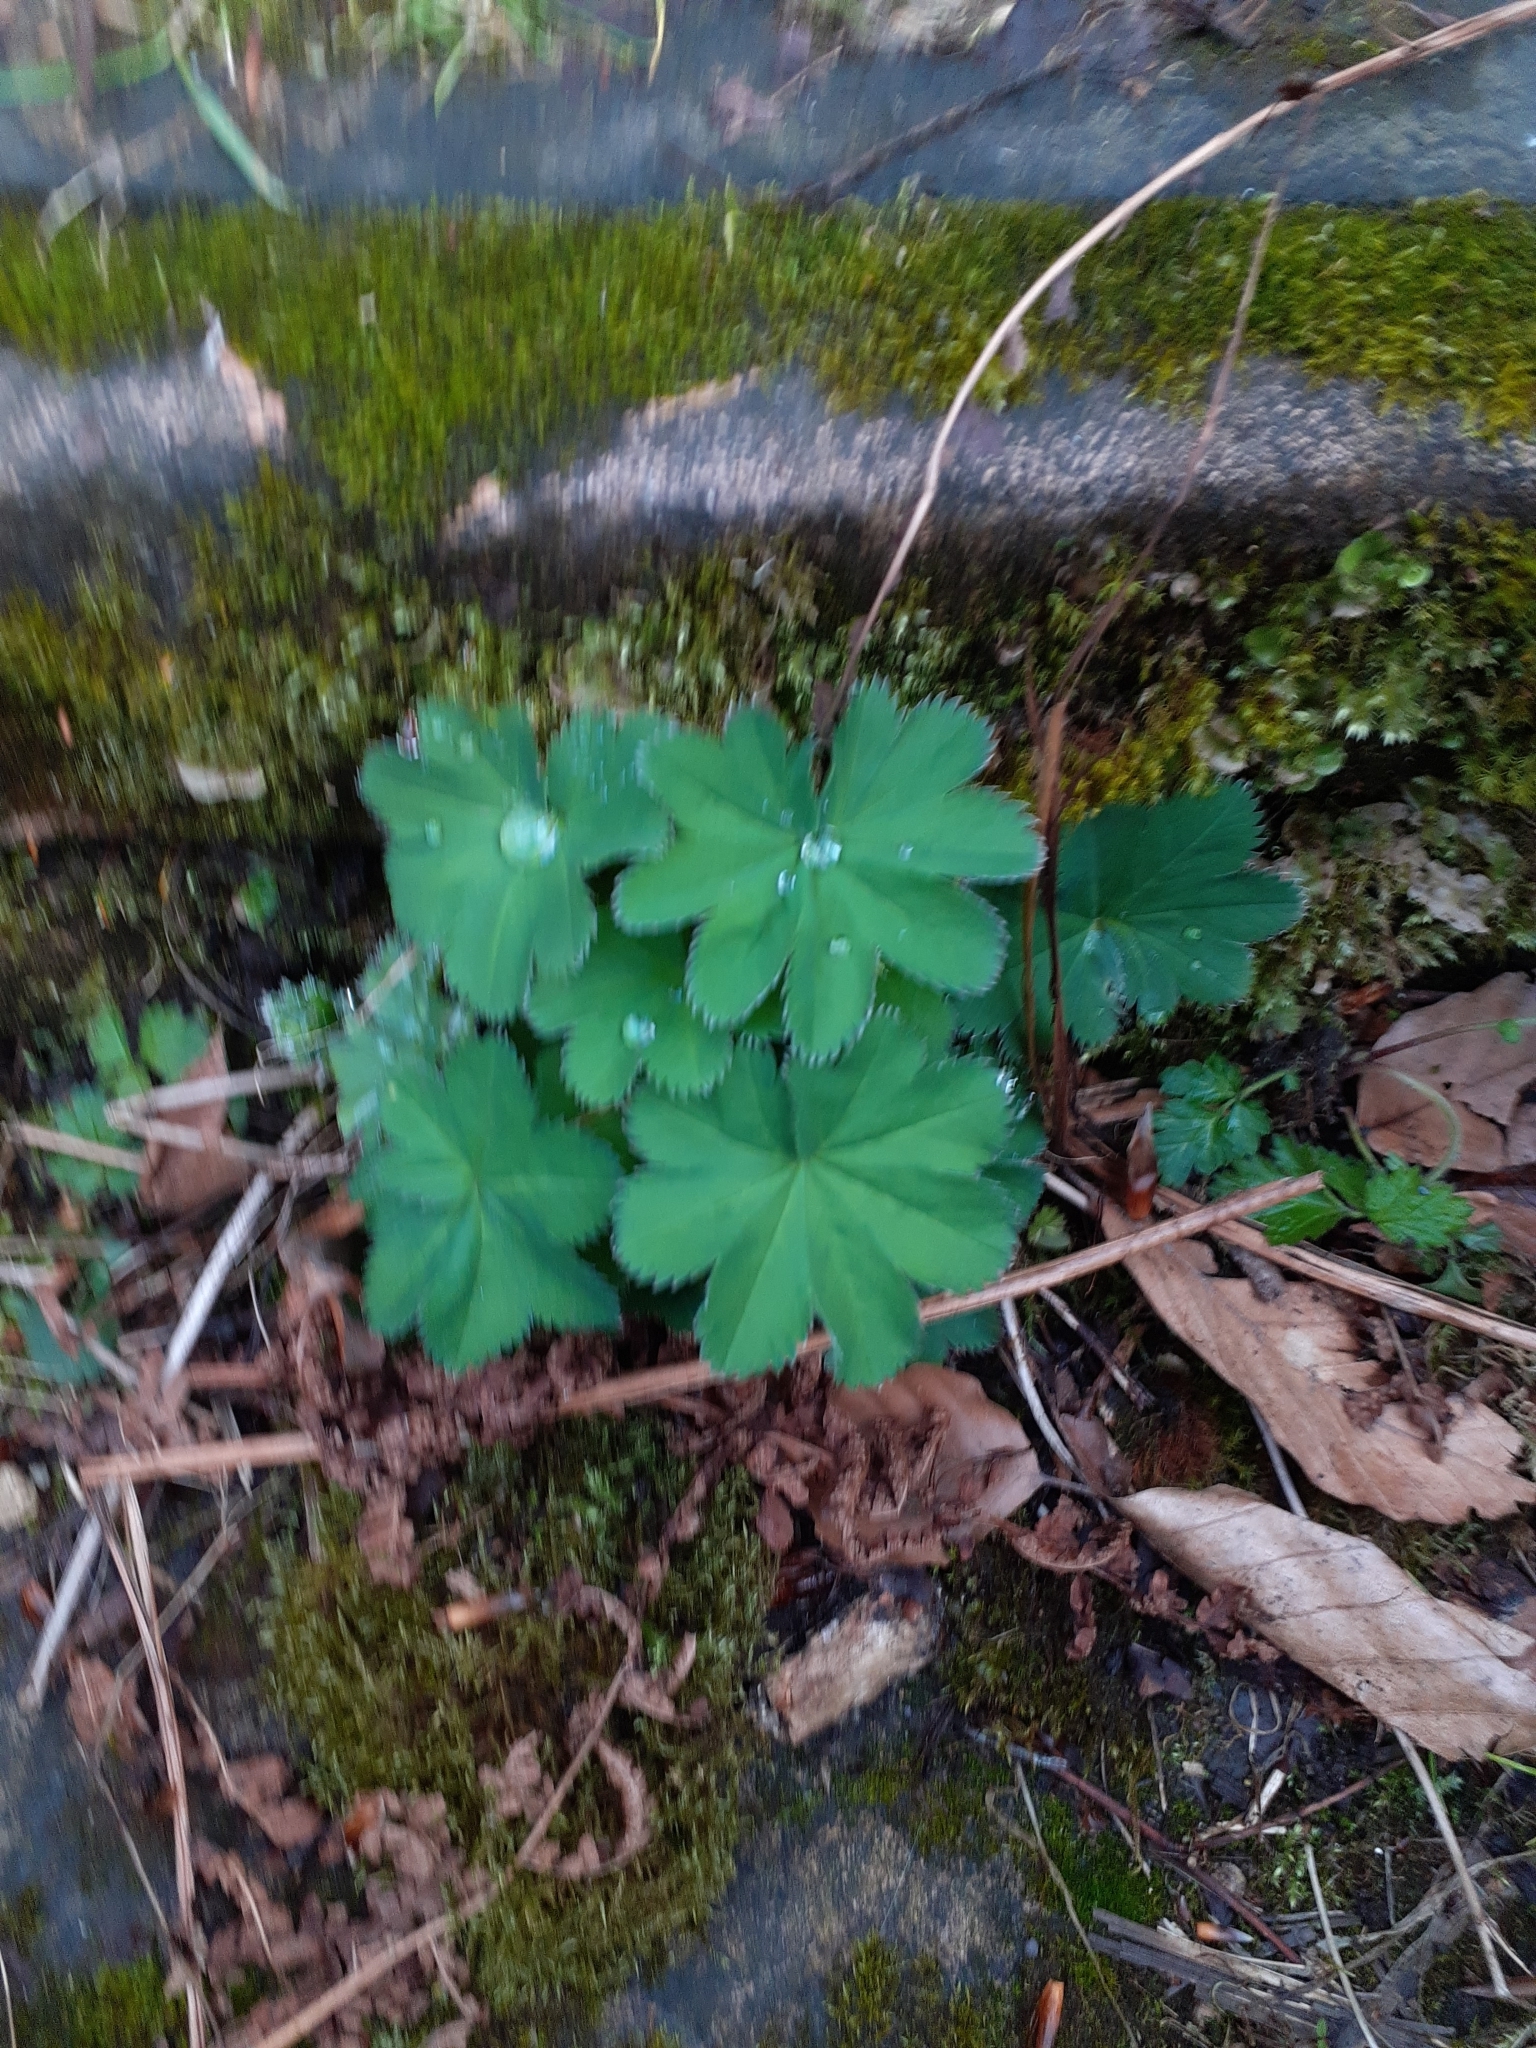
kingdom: Plantae
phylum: Tracheophyta
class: Magnoliopsida
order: Rosales
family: Rosaceae
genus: Alchemilla
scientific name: Alchemilla mollis
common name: Lady's-mantle
